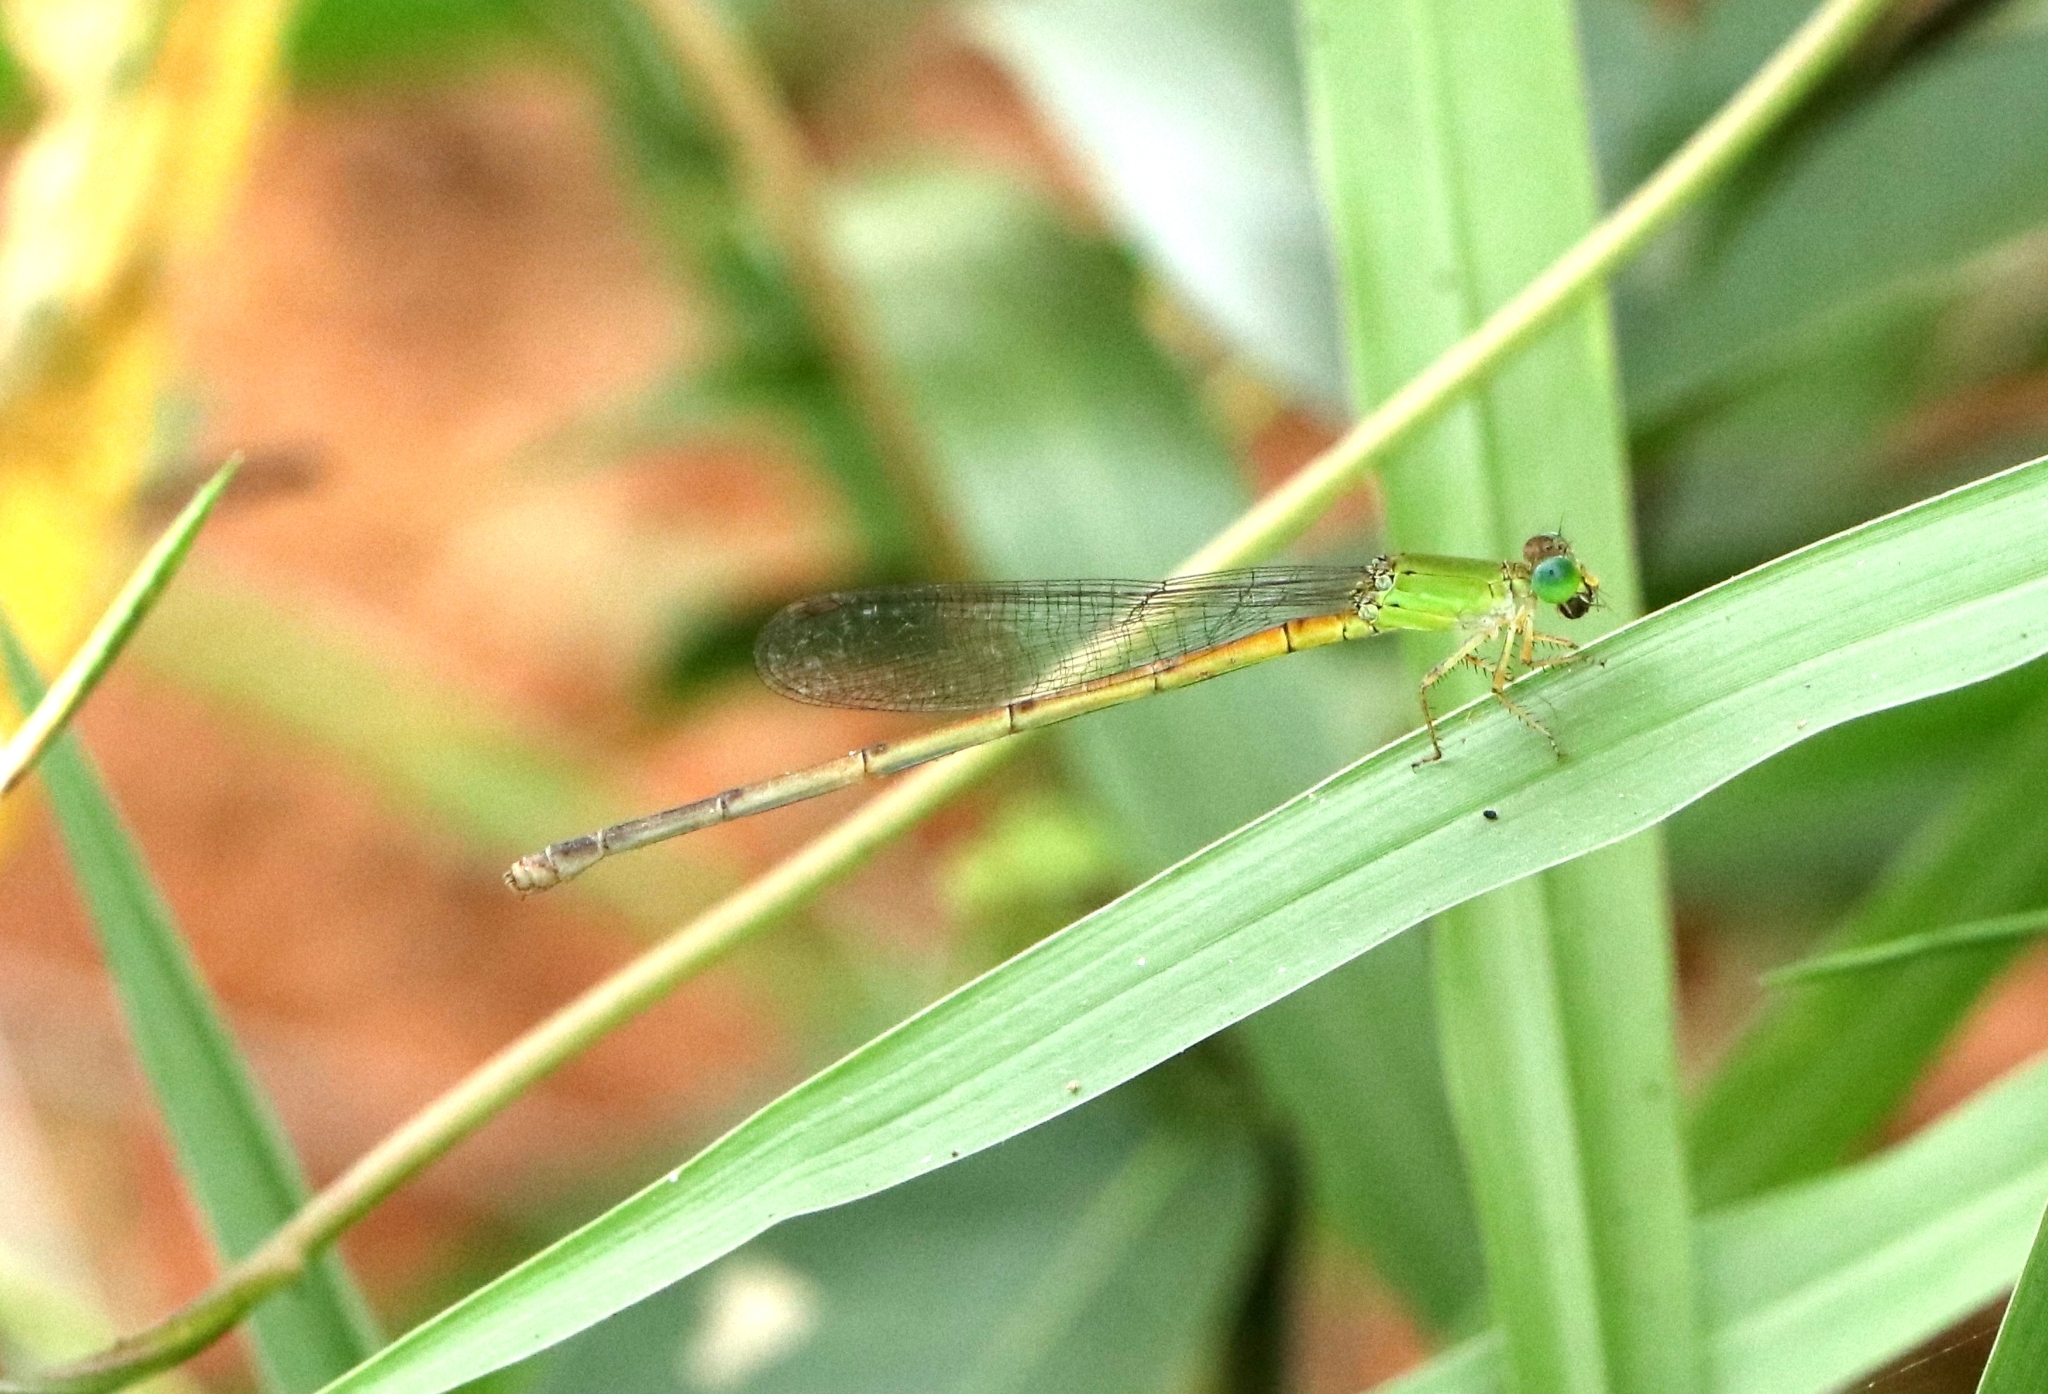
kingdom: Animalia
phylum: Arthropoda
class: Insecta
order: Odonata
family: Coenagrionidae
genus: Ceriagrion
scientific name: Ceriagrion coromandelianum
